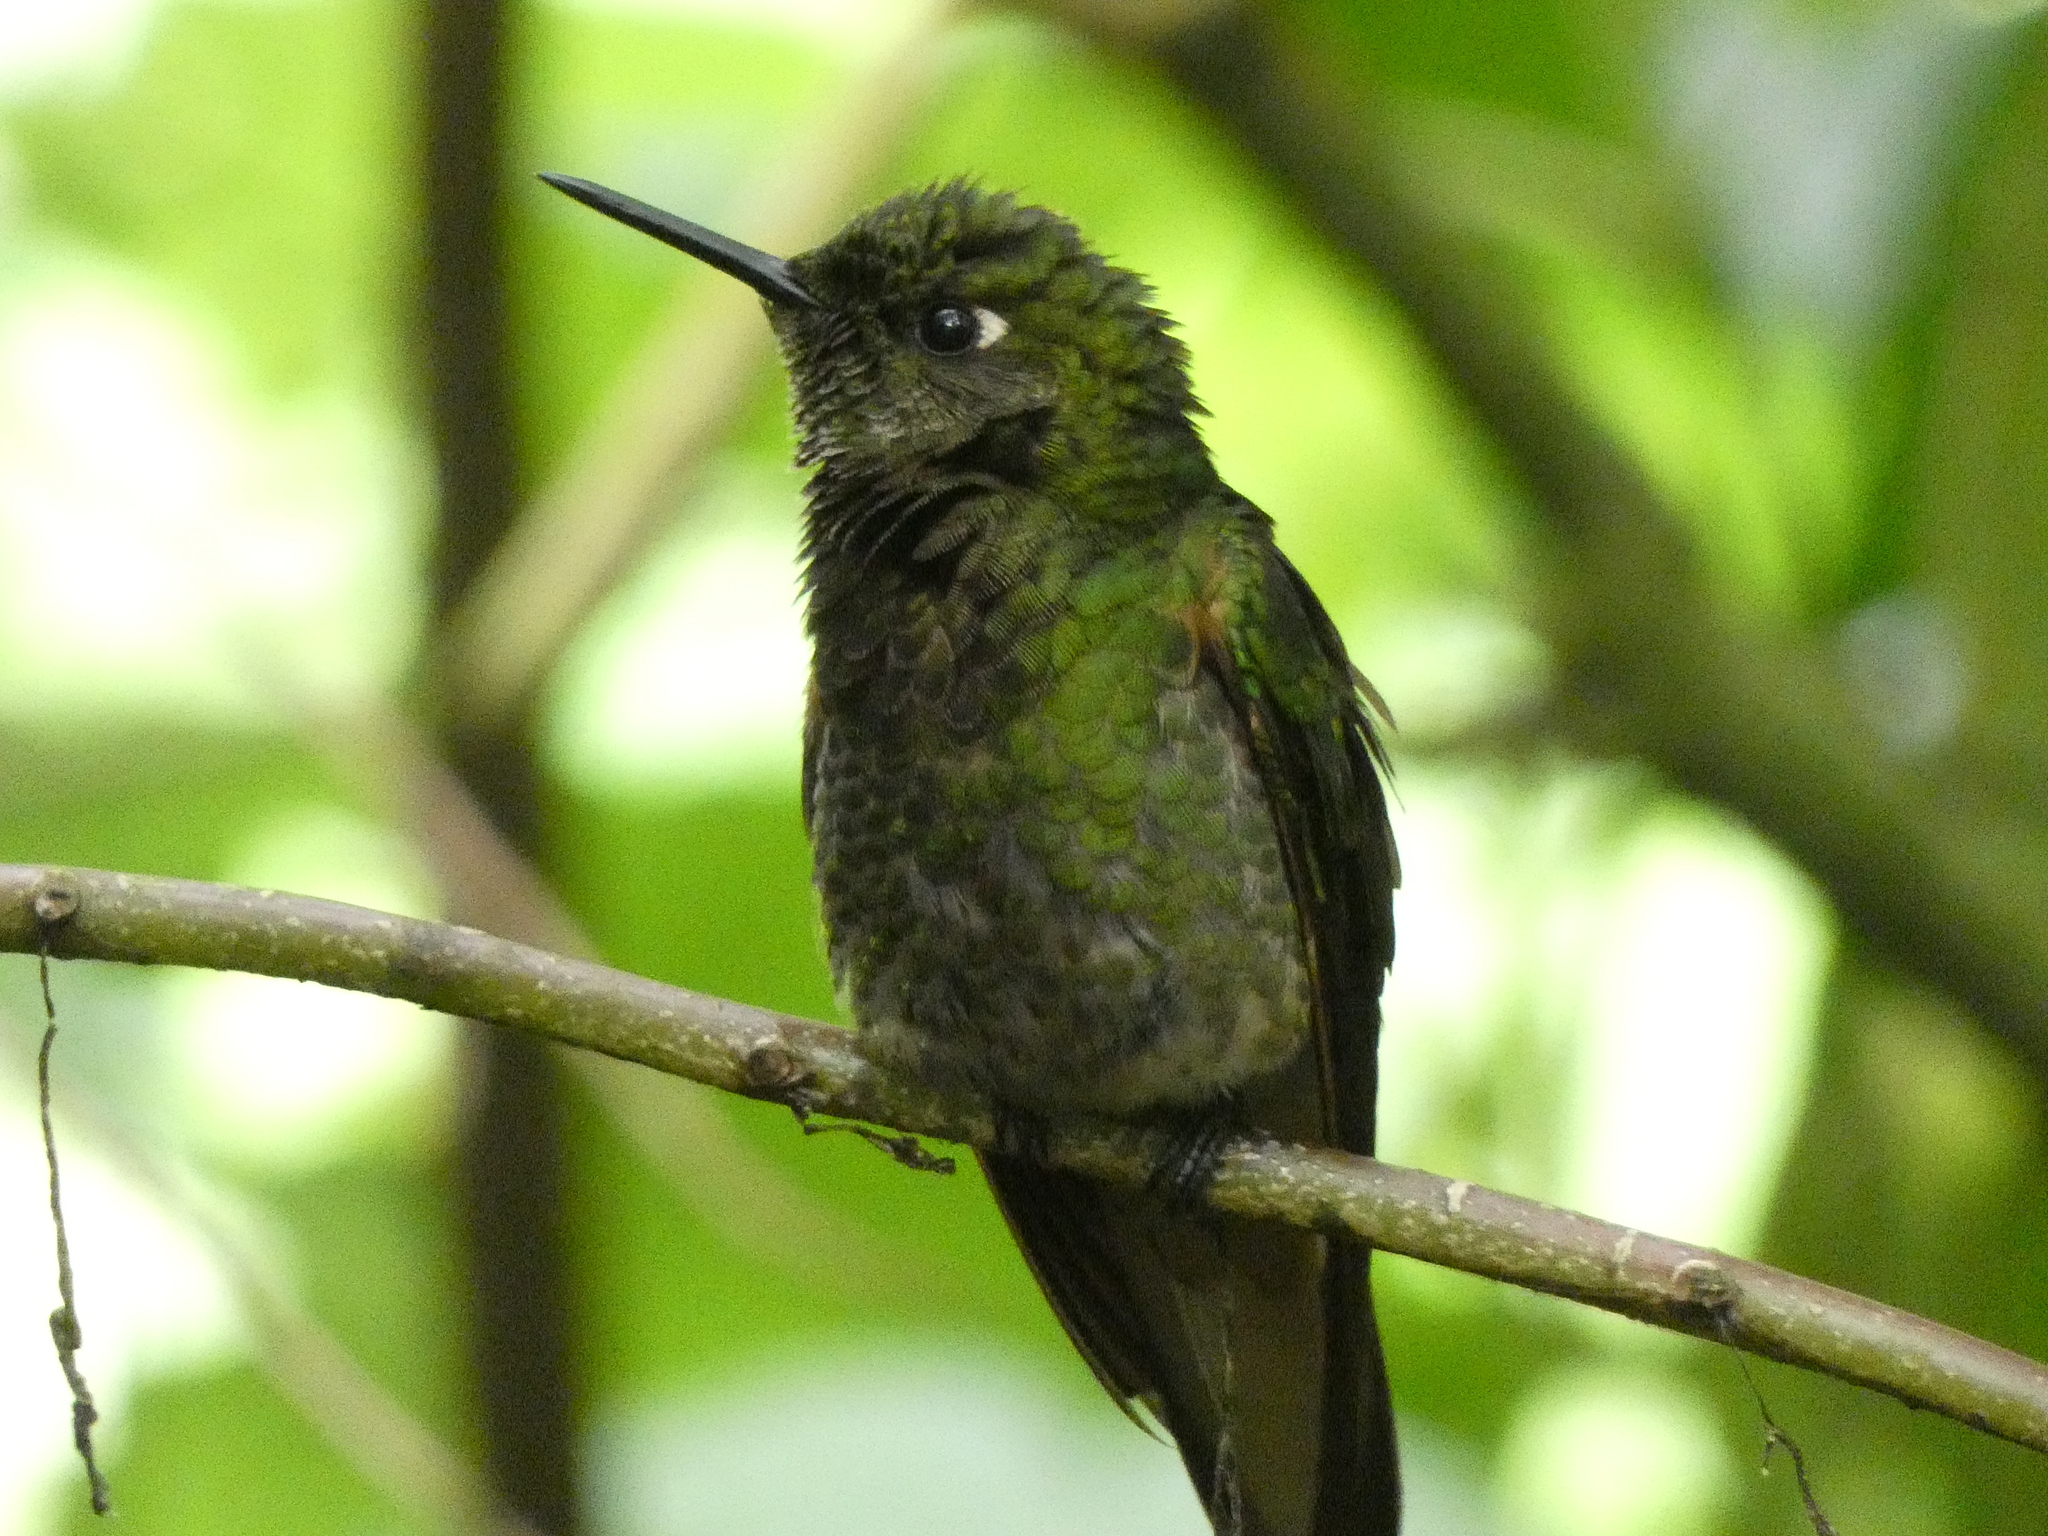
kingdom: Animalia
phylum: Chordata
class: Aves
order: Apodiformes
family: Trochilidae
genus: Boissonneaua
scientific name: Boissonneaua flavescens
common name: Buff-tailed coronet
